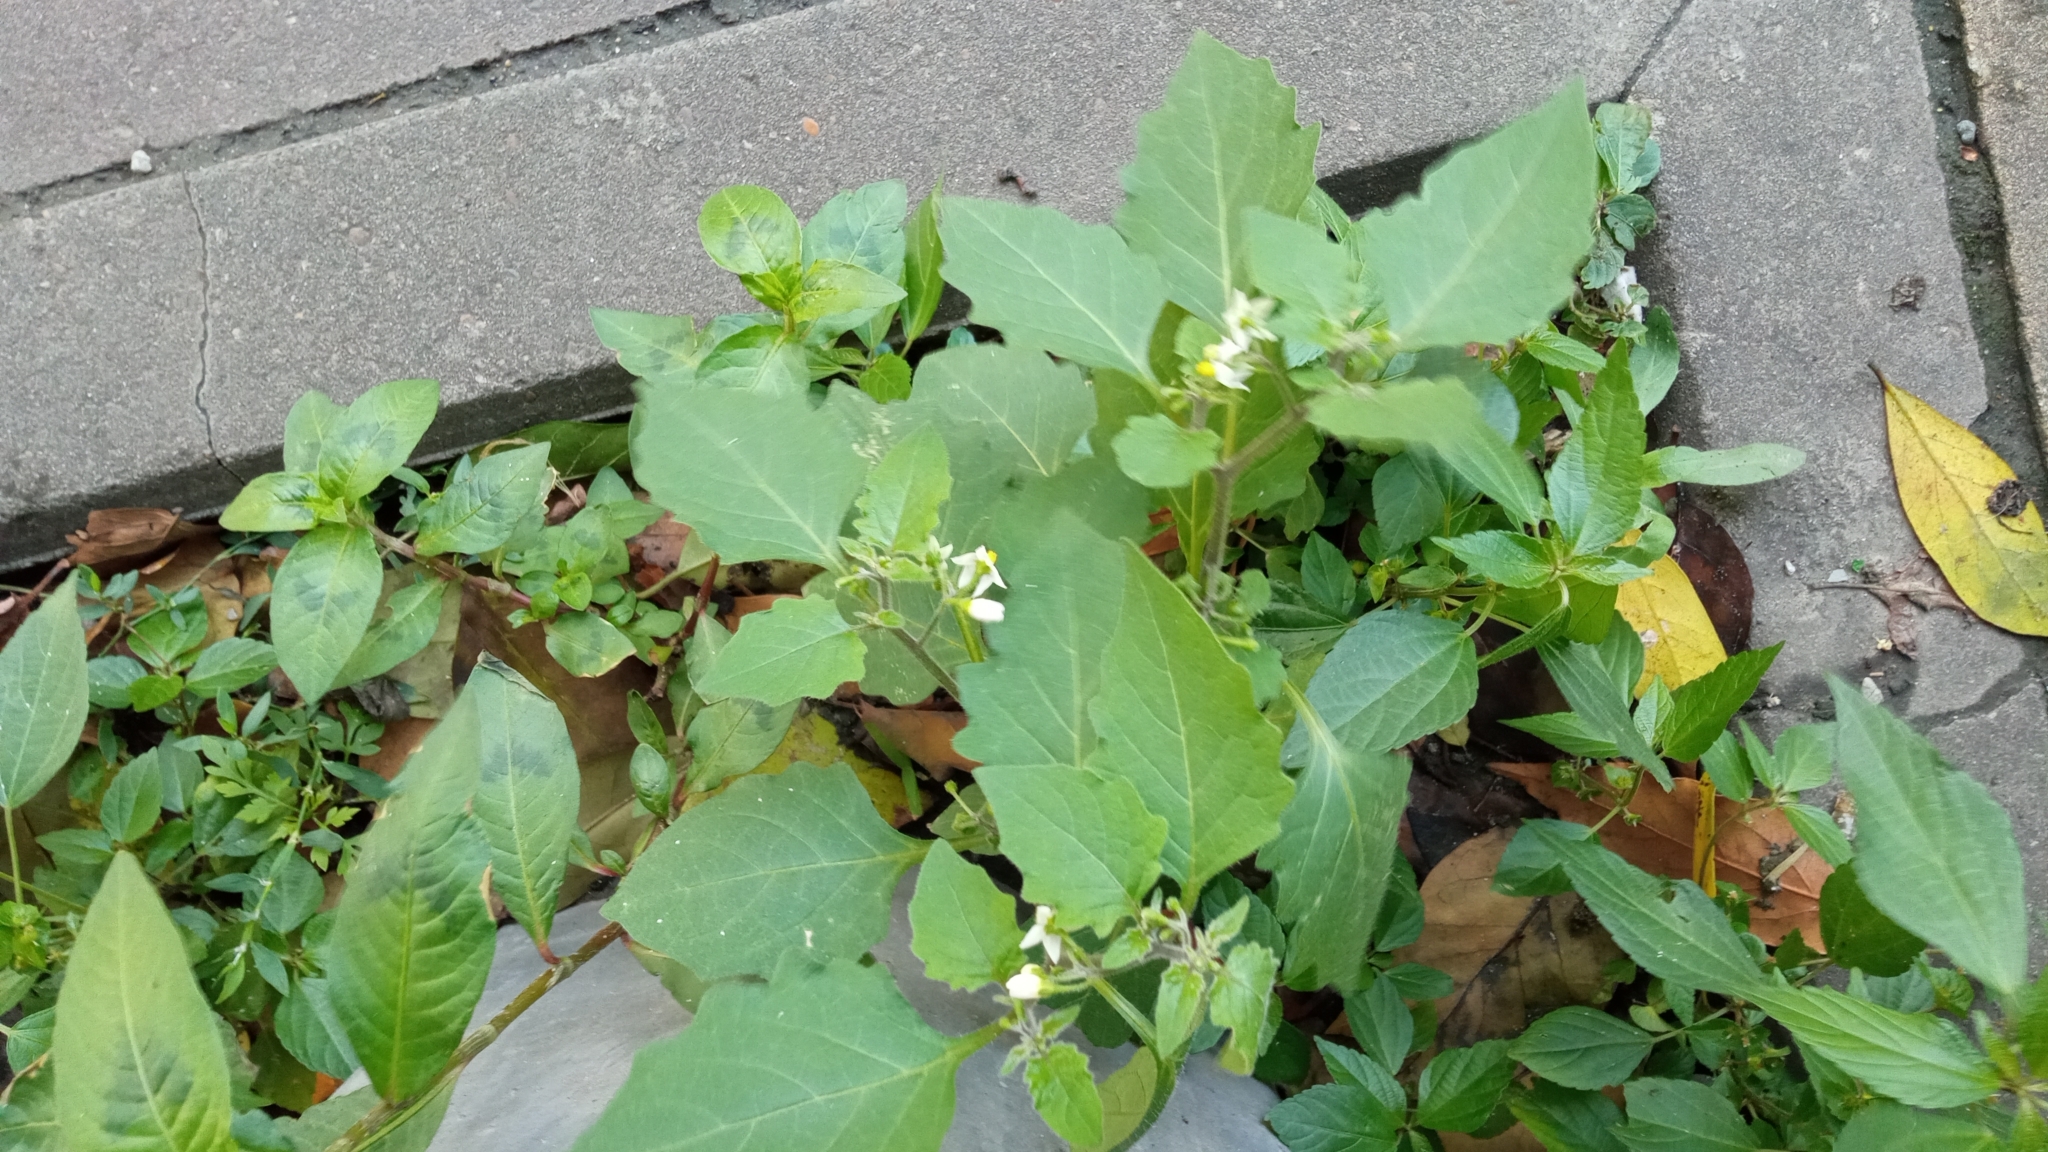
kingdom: Plantae
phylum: Tracheophyta
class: Magnoliopsida
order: Solanales
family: Solanaceae
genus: Solanum
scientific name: Solanum nigrum
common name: Black nightshade
